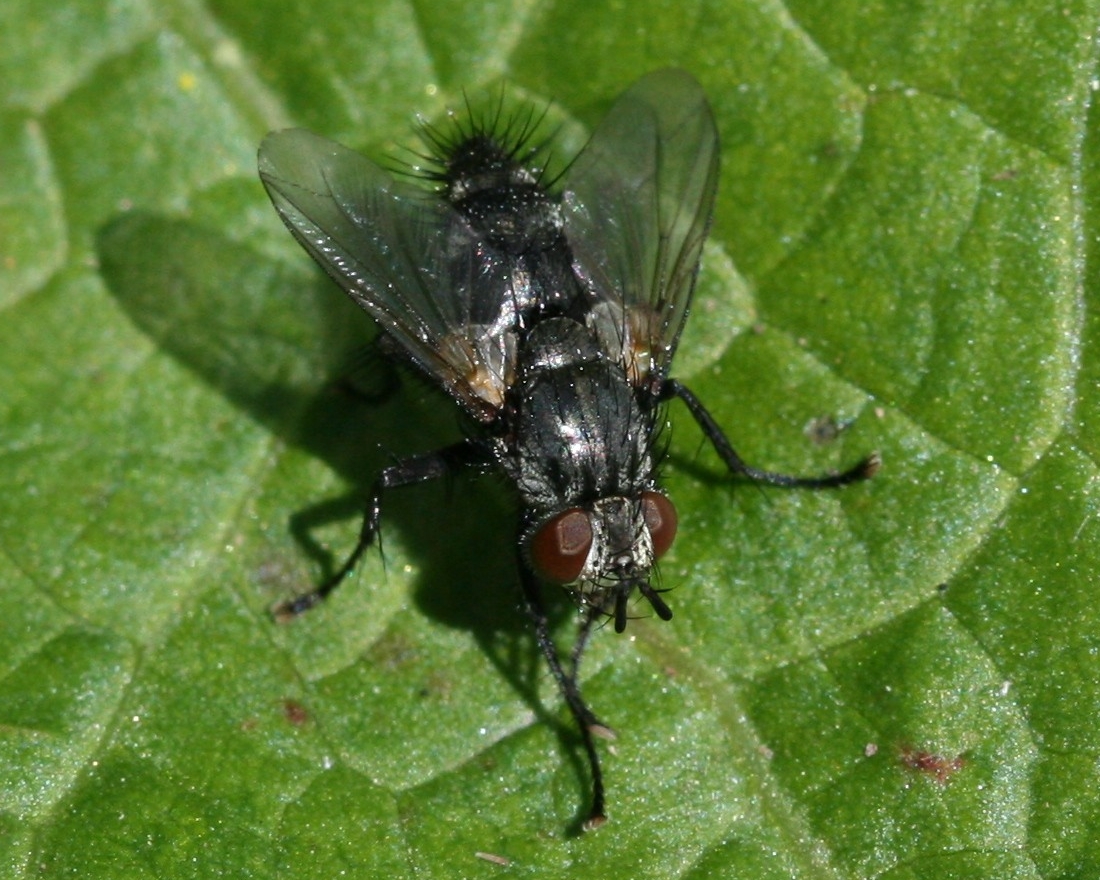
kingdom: Animalia
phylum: Arthropoda
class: Insecta
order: Diptera
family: Tachinidae
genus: Voria
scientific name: Voria ruralis
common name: Parasitic fly
